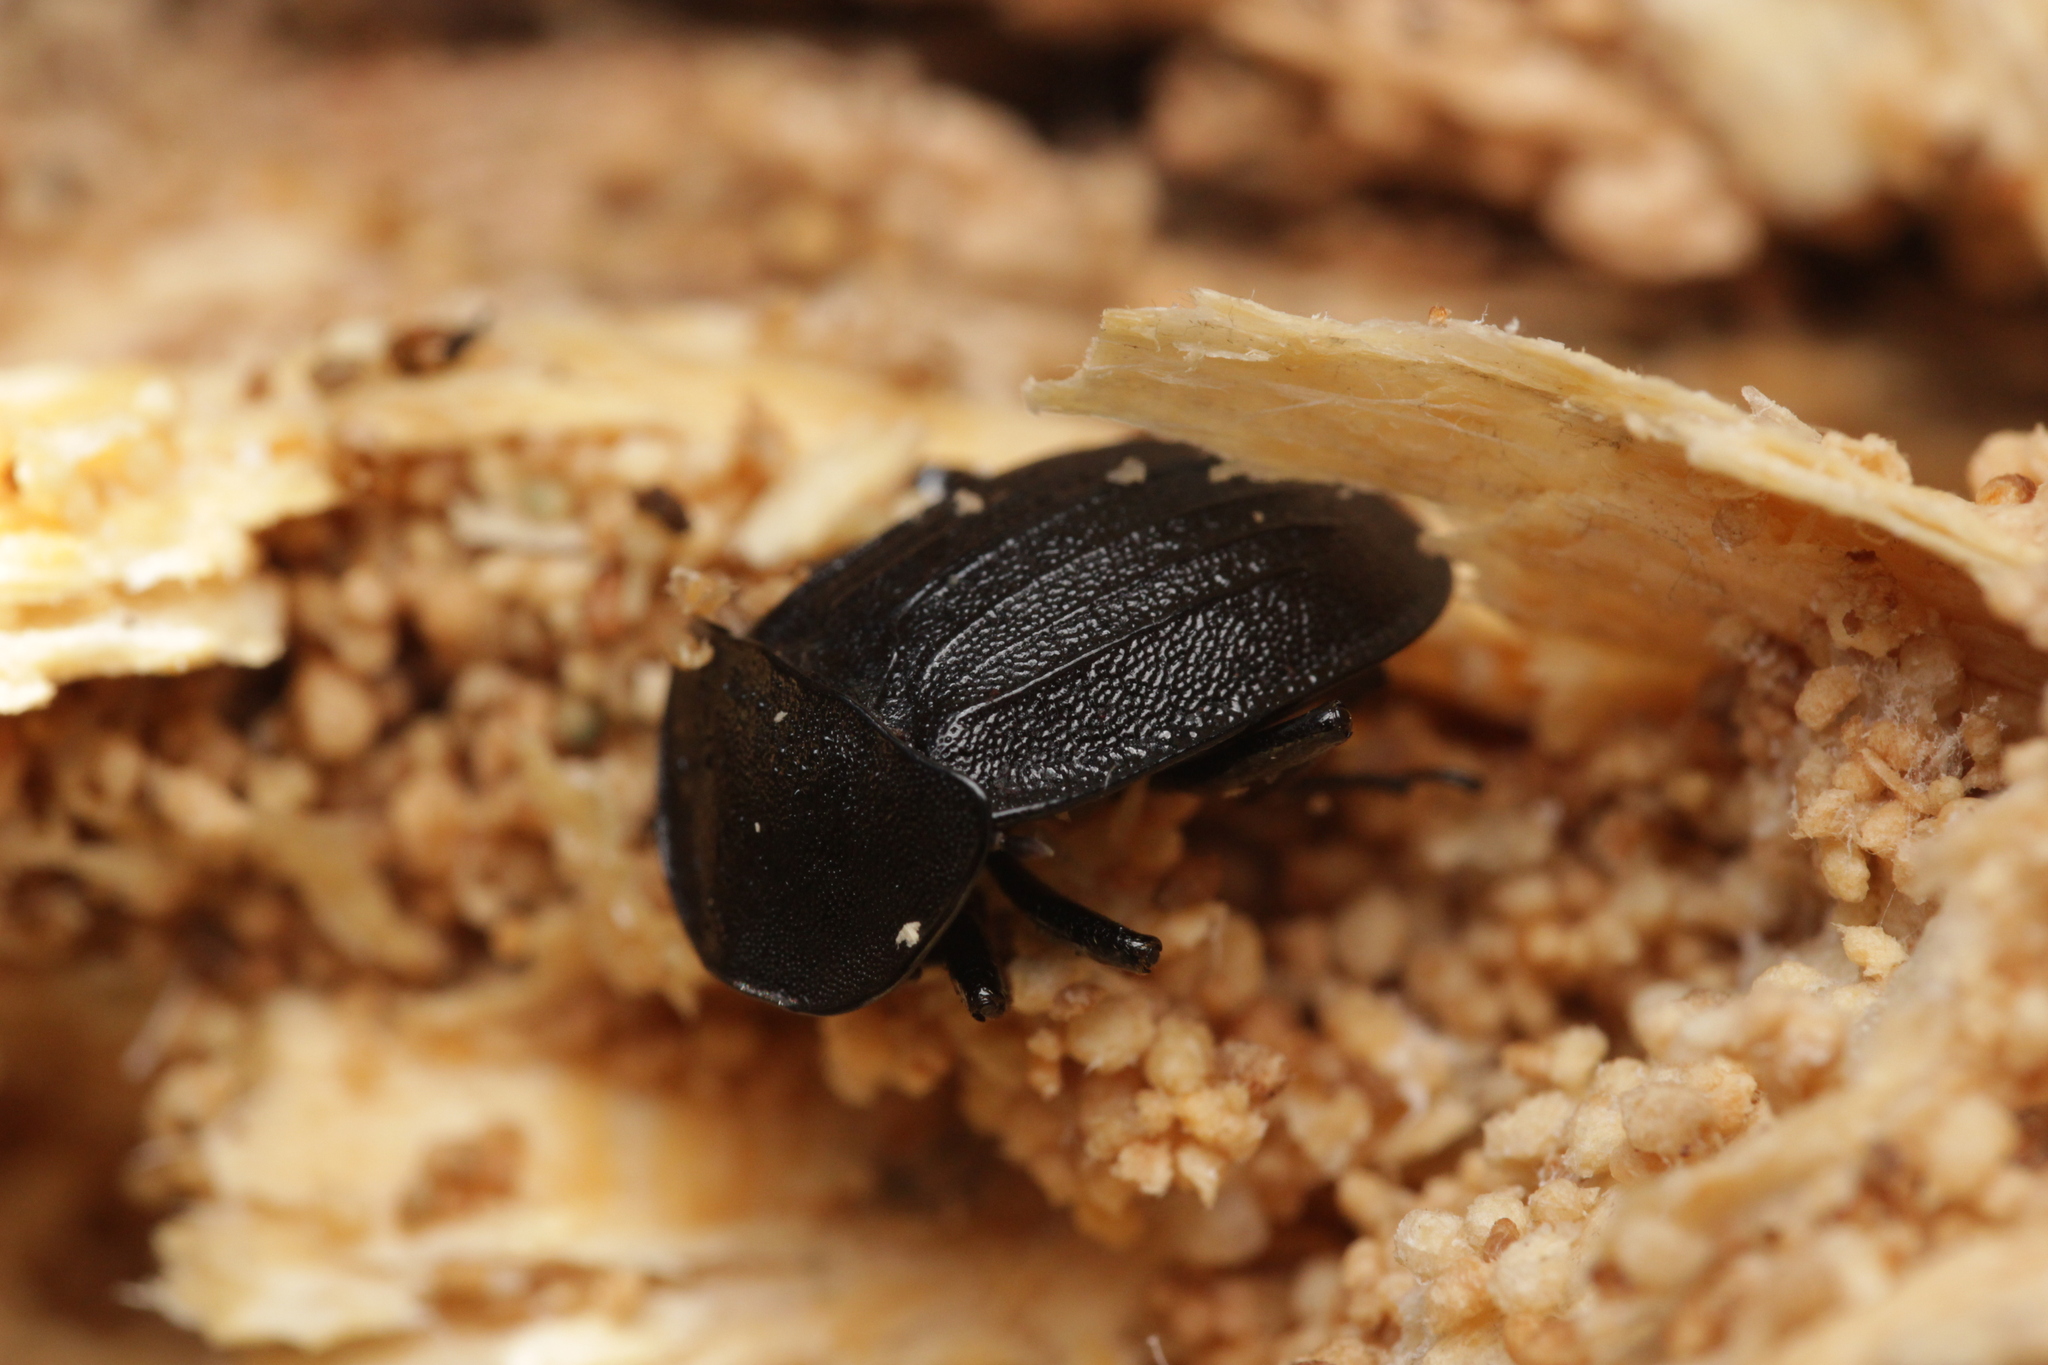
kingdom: Animalia
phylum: Arthropoda
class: Insecta
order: Coleoptera
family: Staphylinidae
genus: Silpha
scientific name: Silpha atrata
